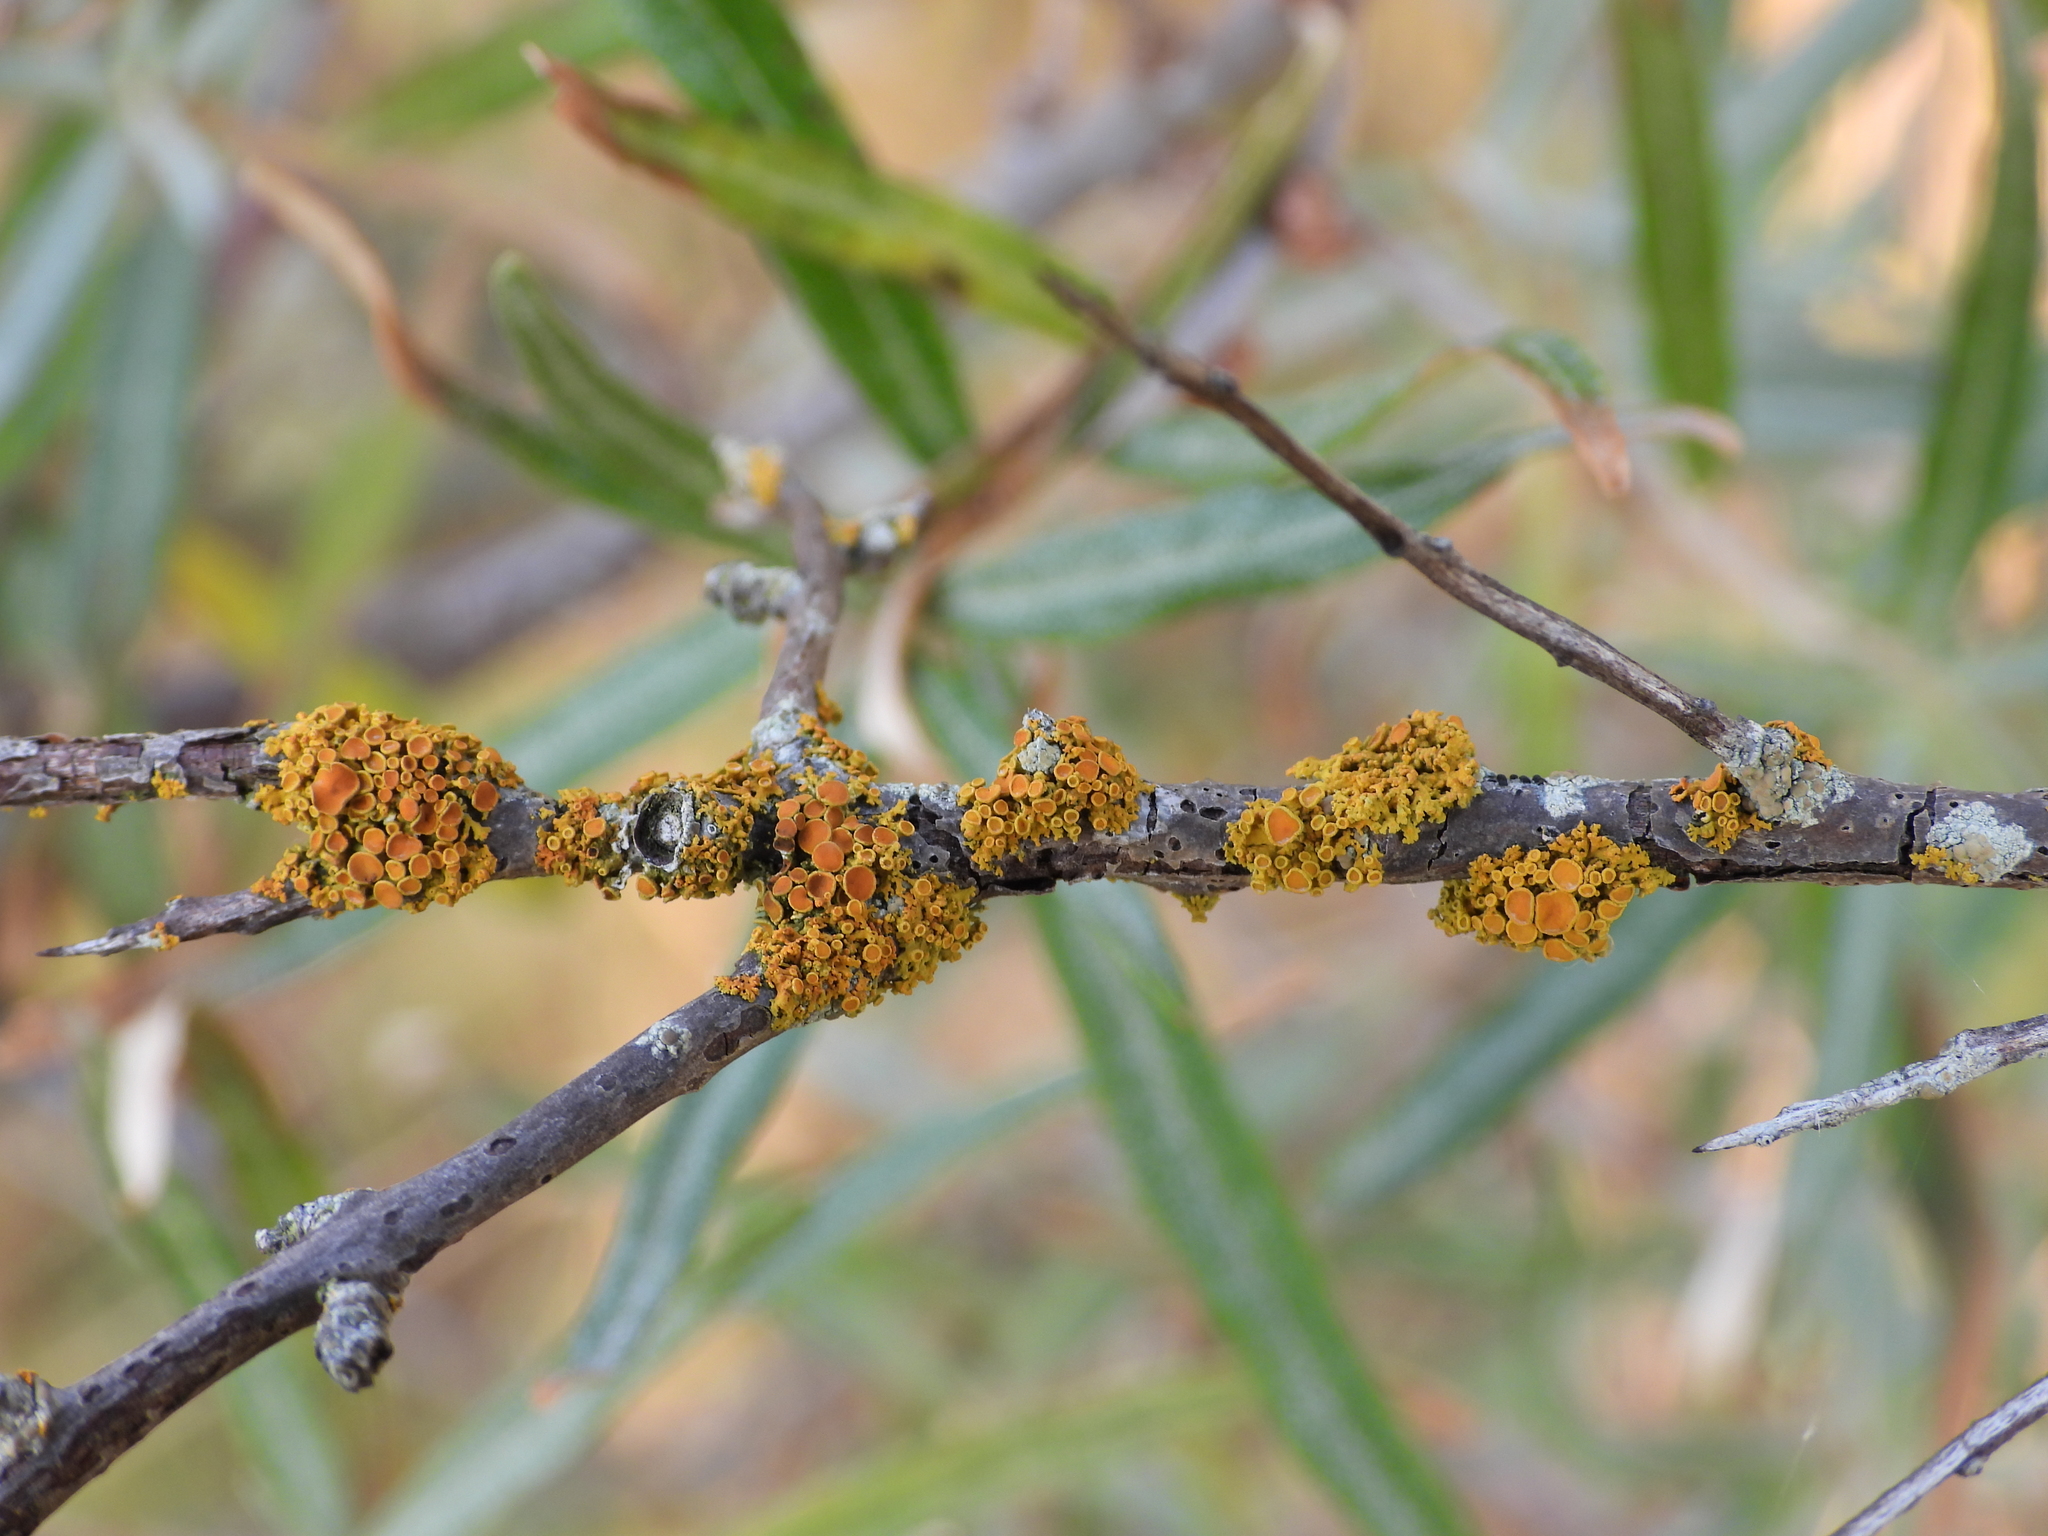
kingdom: Fungi
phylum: Ascomycota
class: Lecanoromycetes
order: Teloschistales
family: Teloschistaceae
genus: Polycauliona
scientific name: Polycauliona polycarpa
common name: Pin-cushion sunburst lichen
